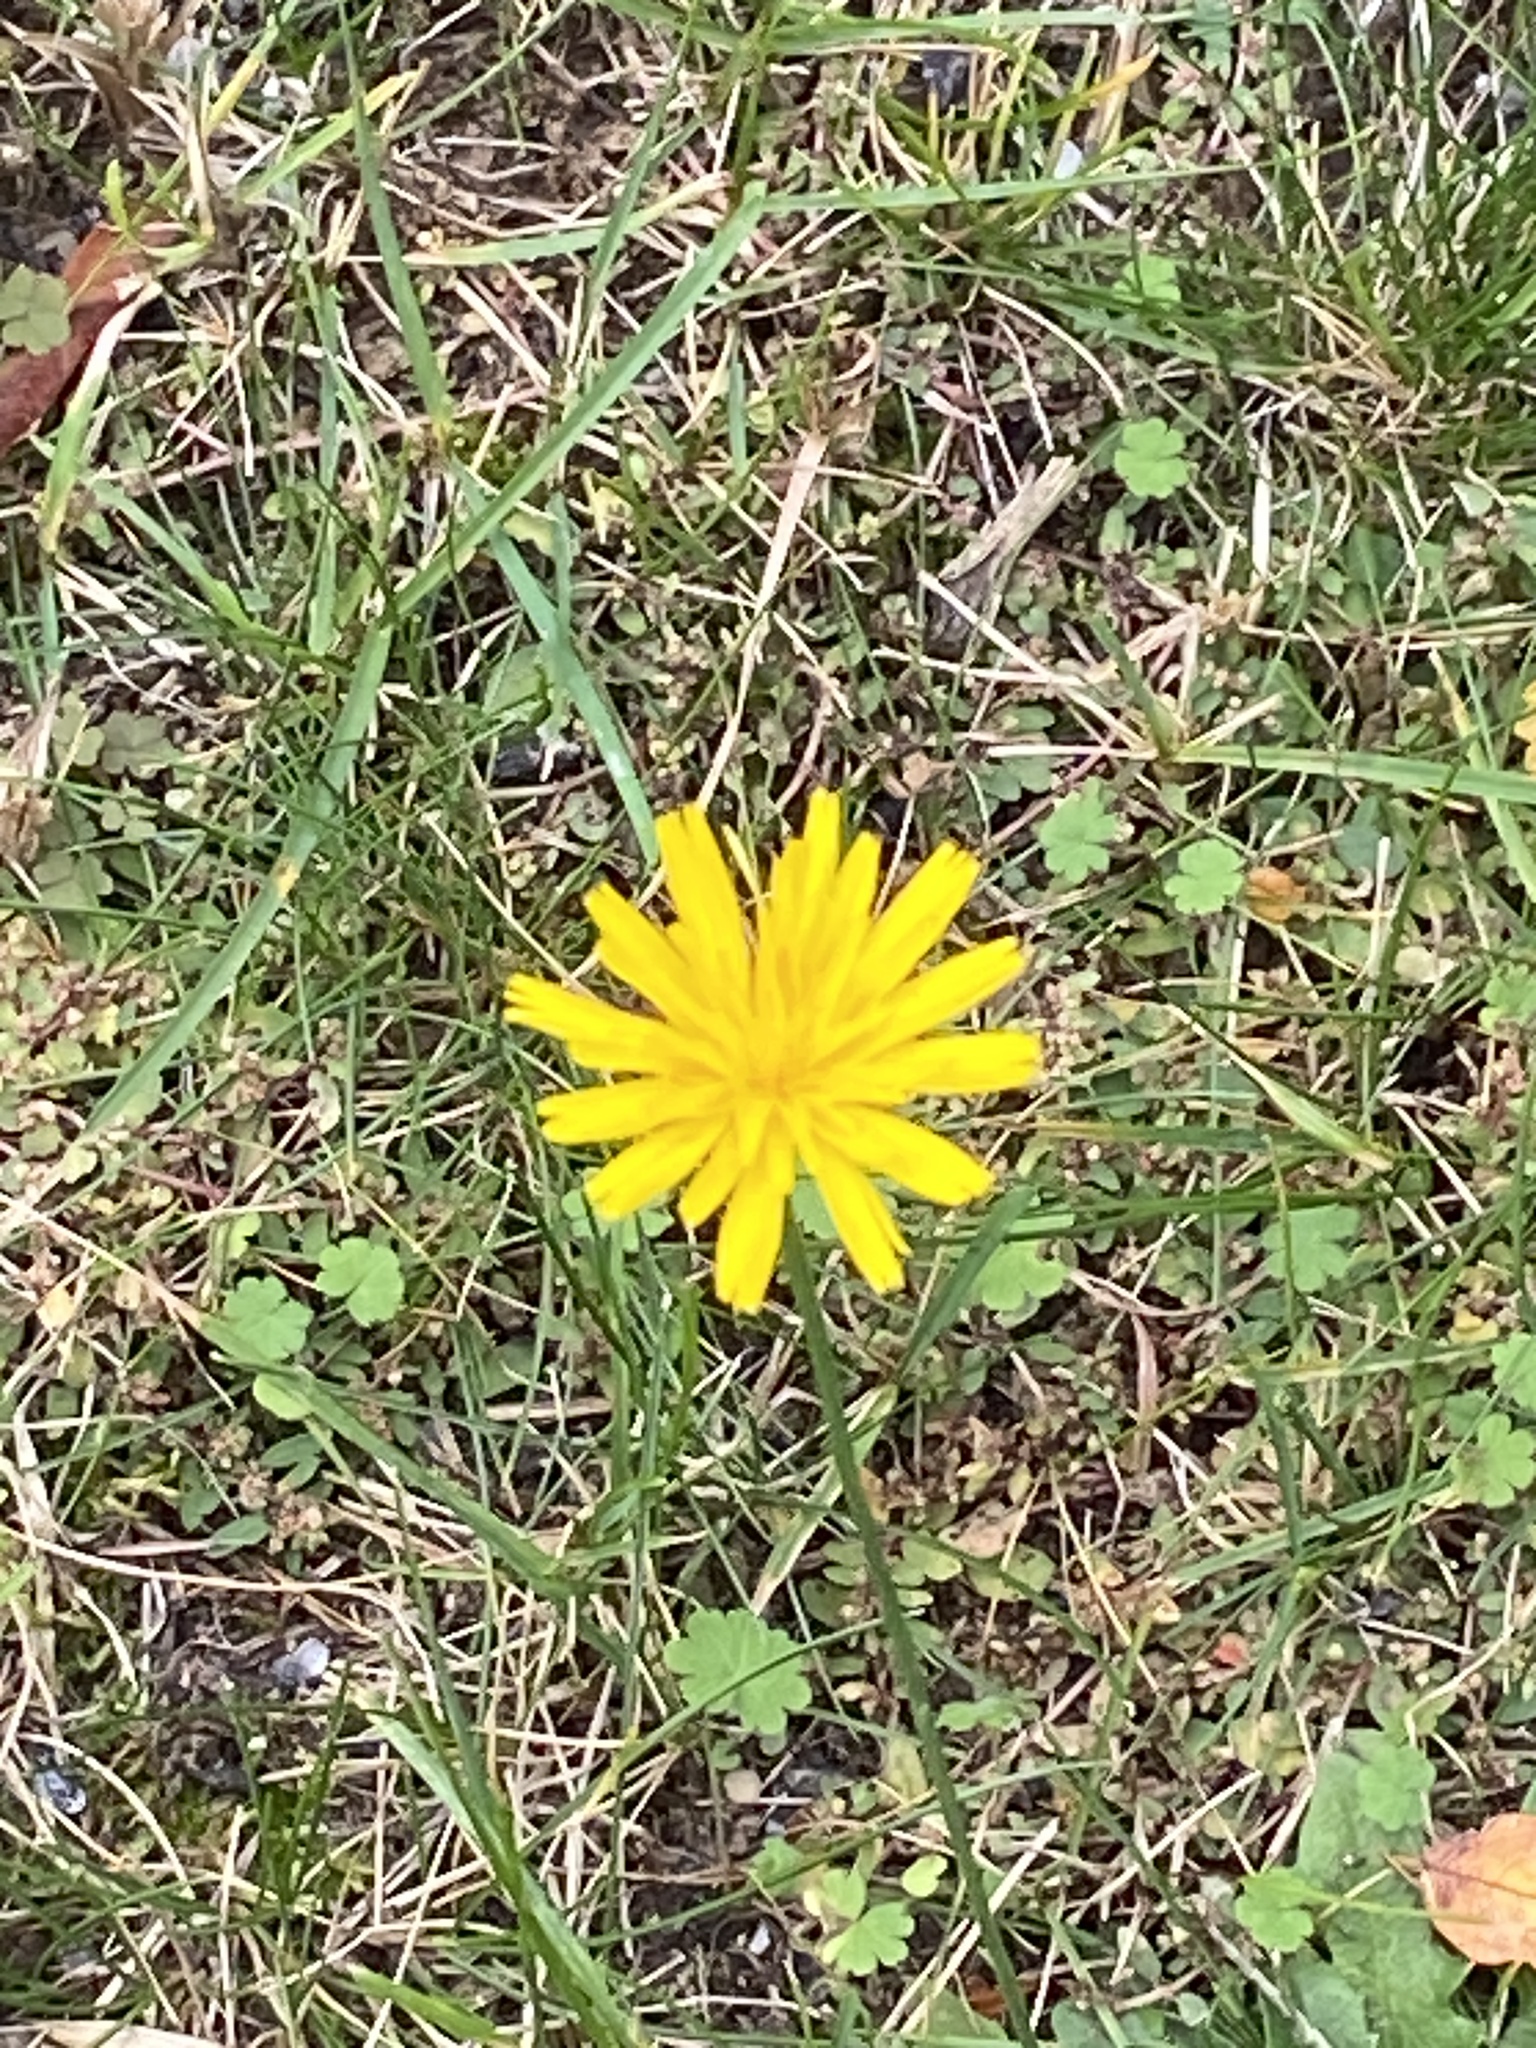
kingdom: Plantae
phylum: Tracheophyta
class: Magnoliopsida
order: Asterales
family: Asteraceae
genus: Hypochaeris
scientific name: Hypochaeris radicata
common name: Flatweed
